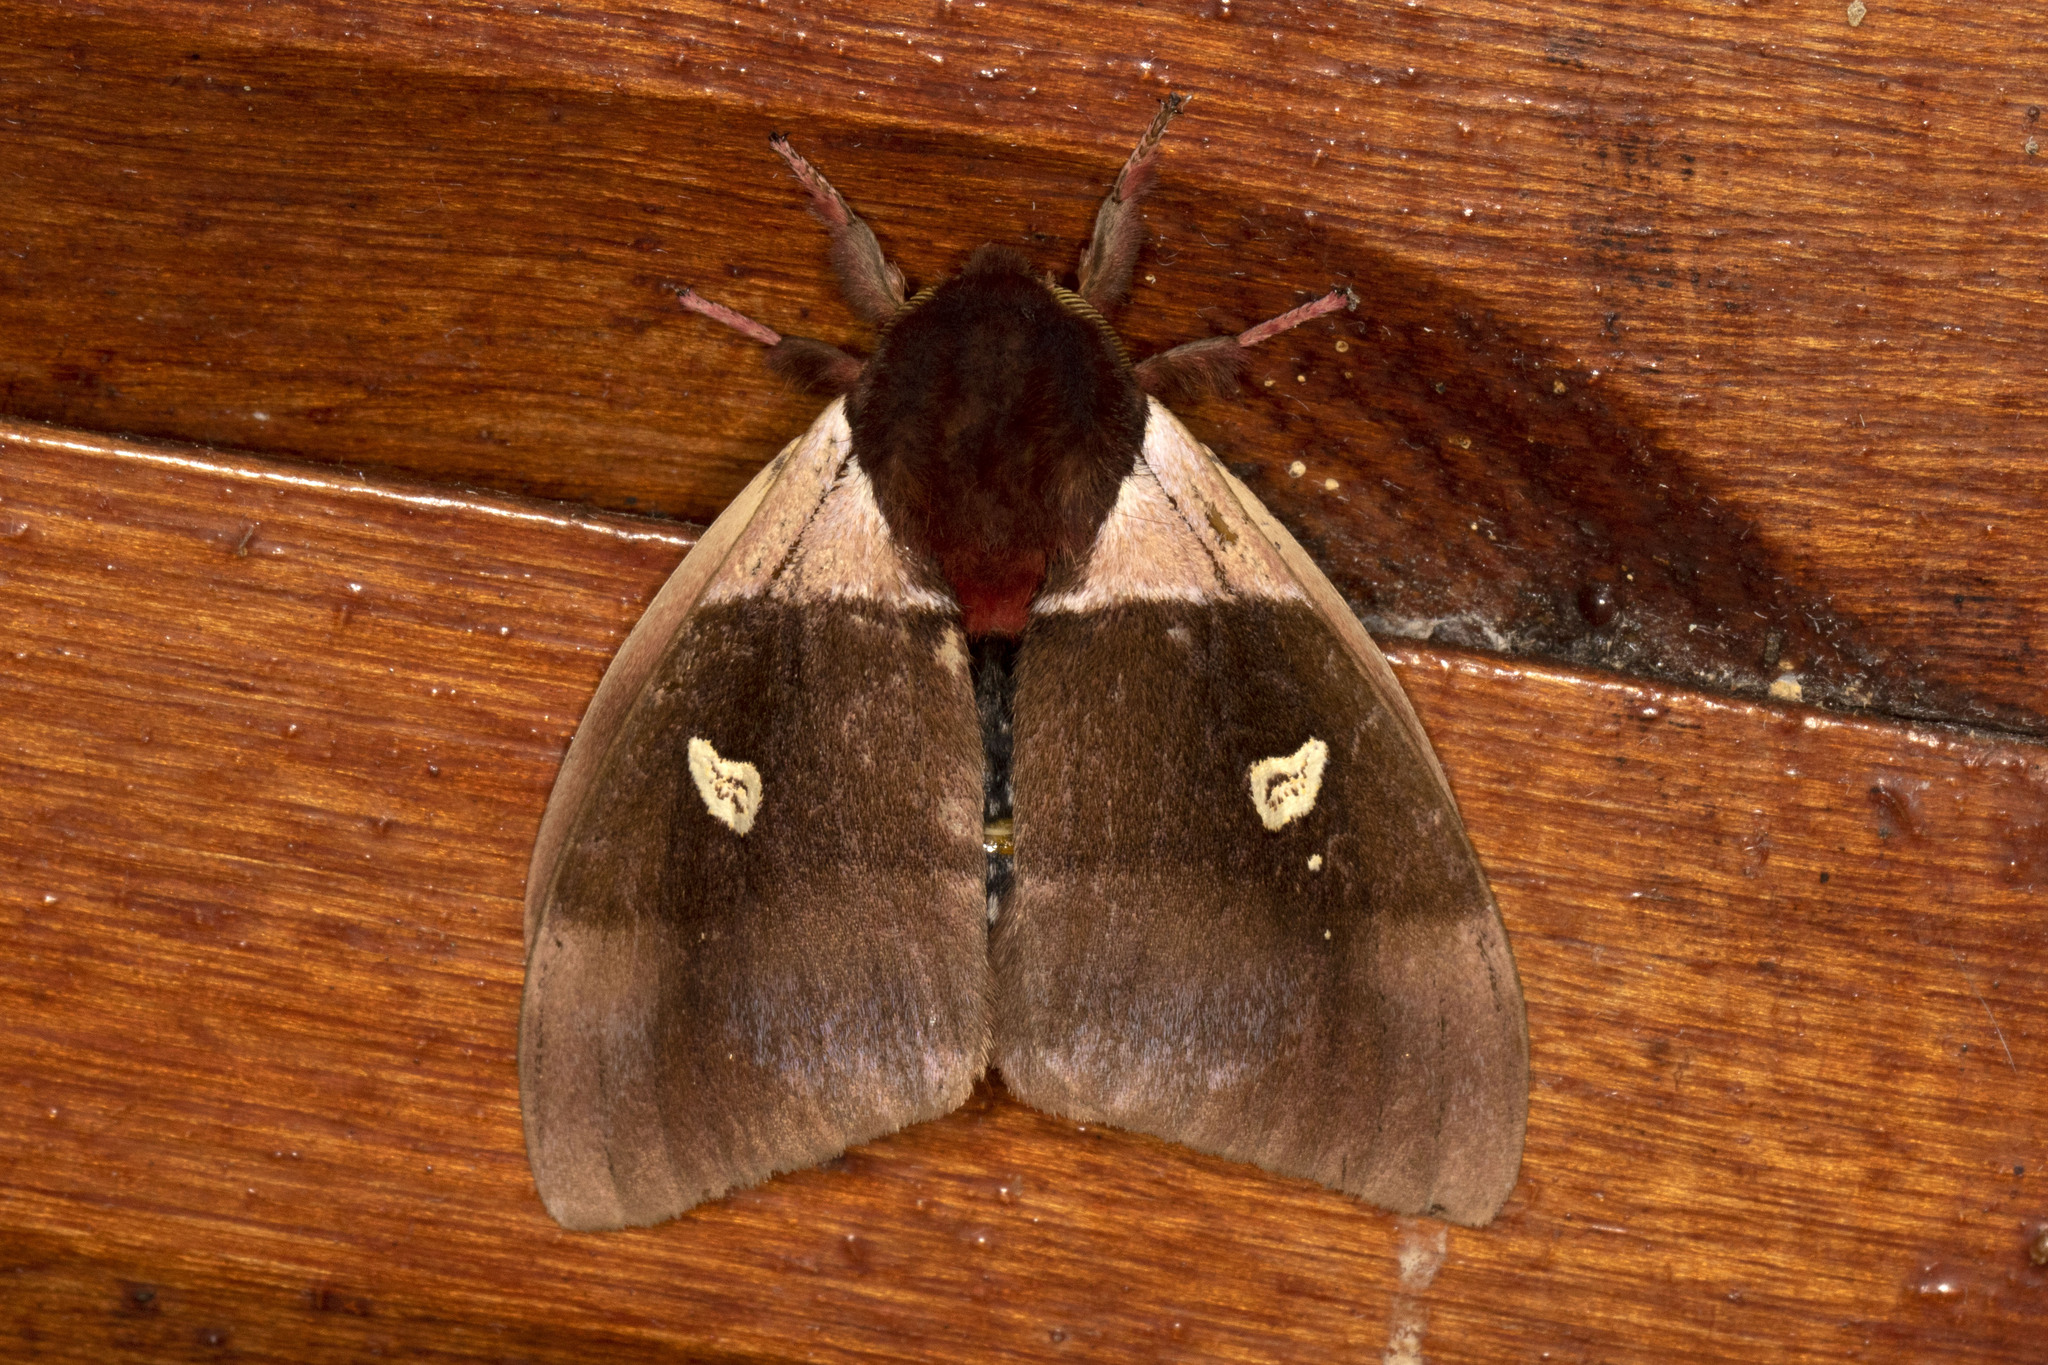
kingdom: Animalia
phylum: Arthropoda
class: Insecta
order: Lepidoptera
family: Saturniidae
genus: Dirphiopsis
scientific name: Dirphiopsis trisignata
